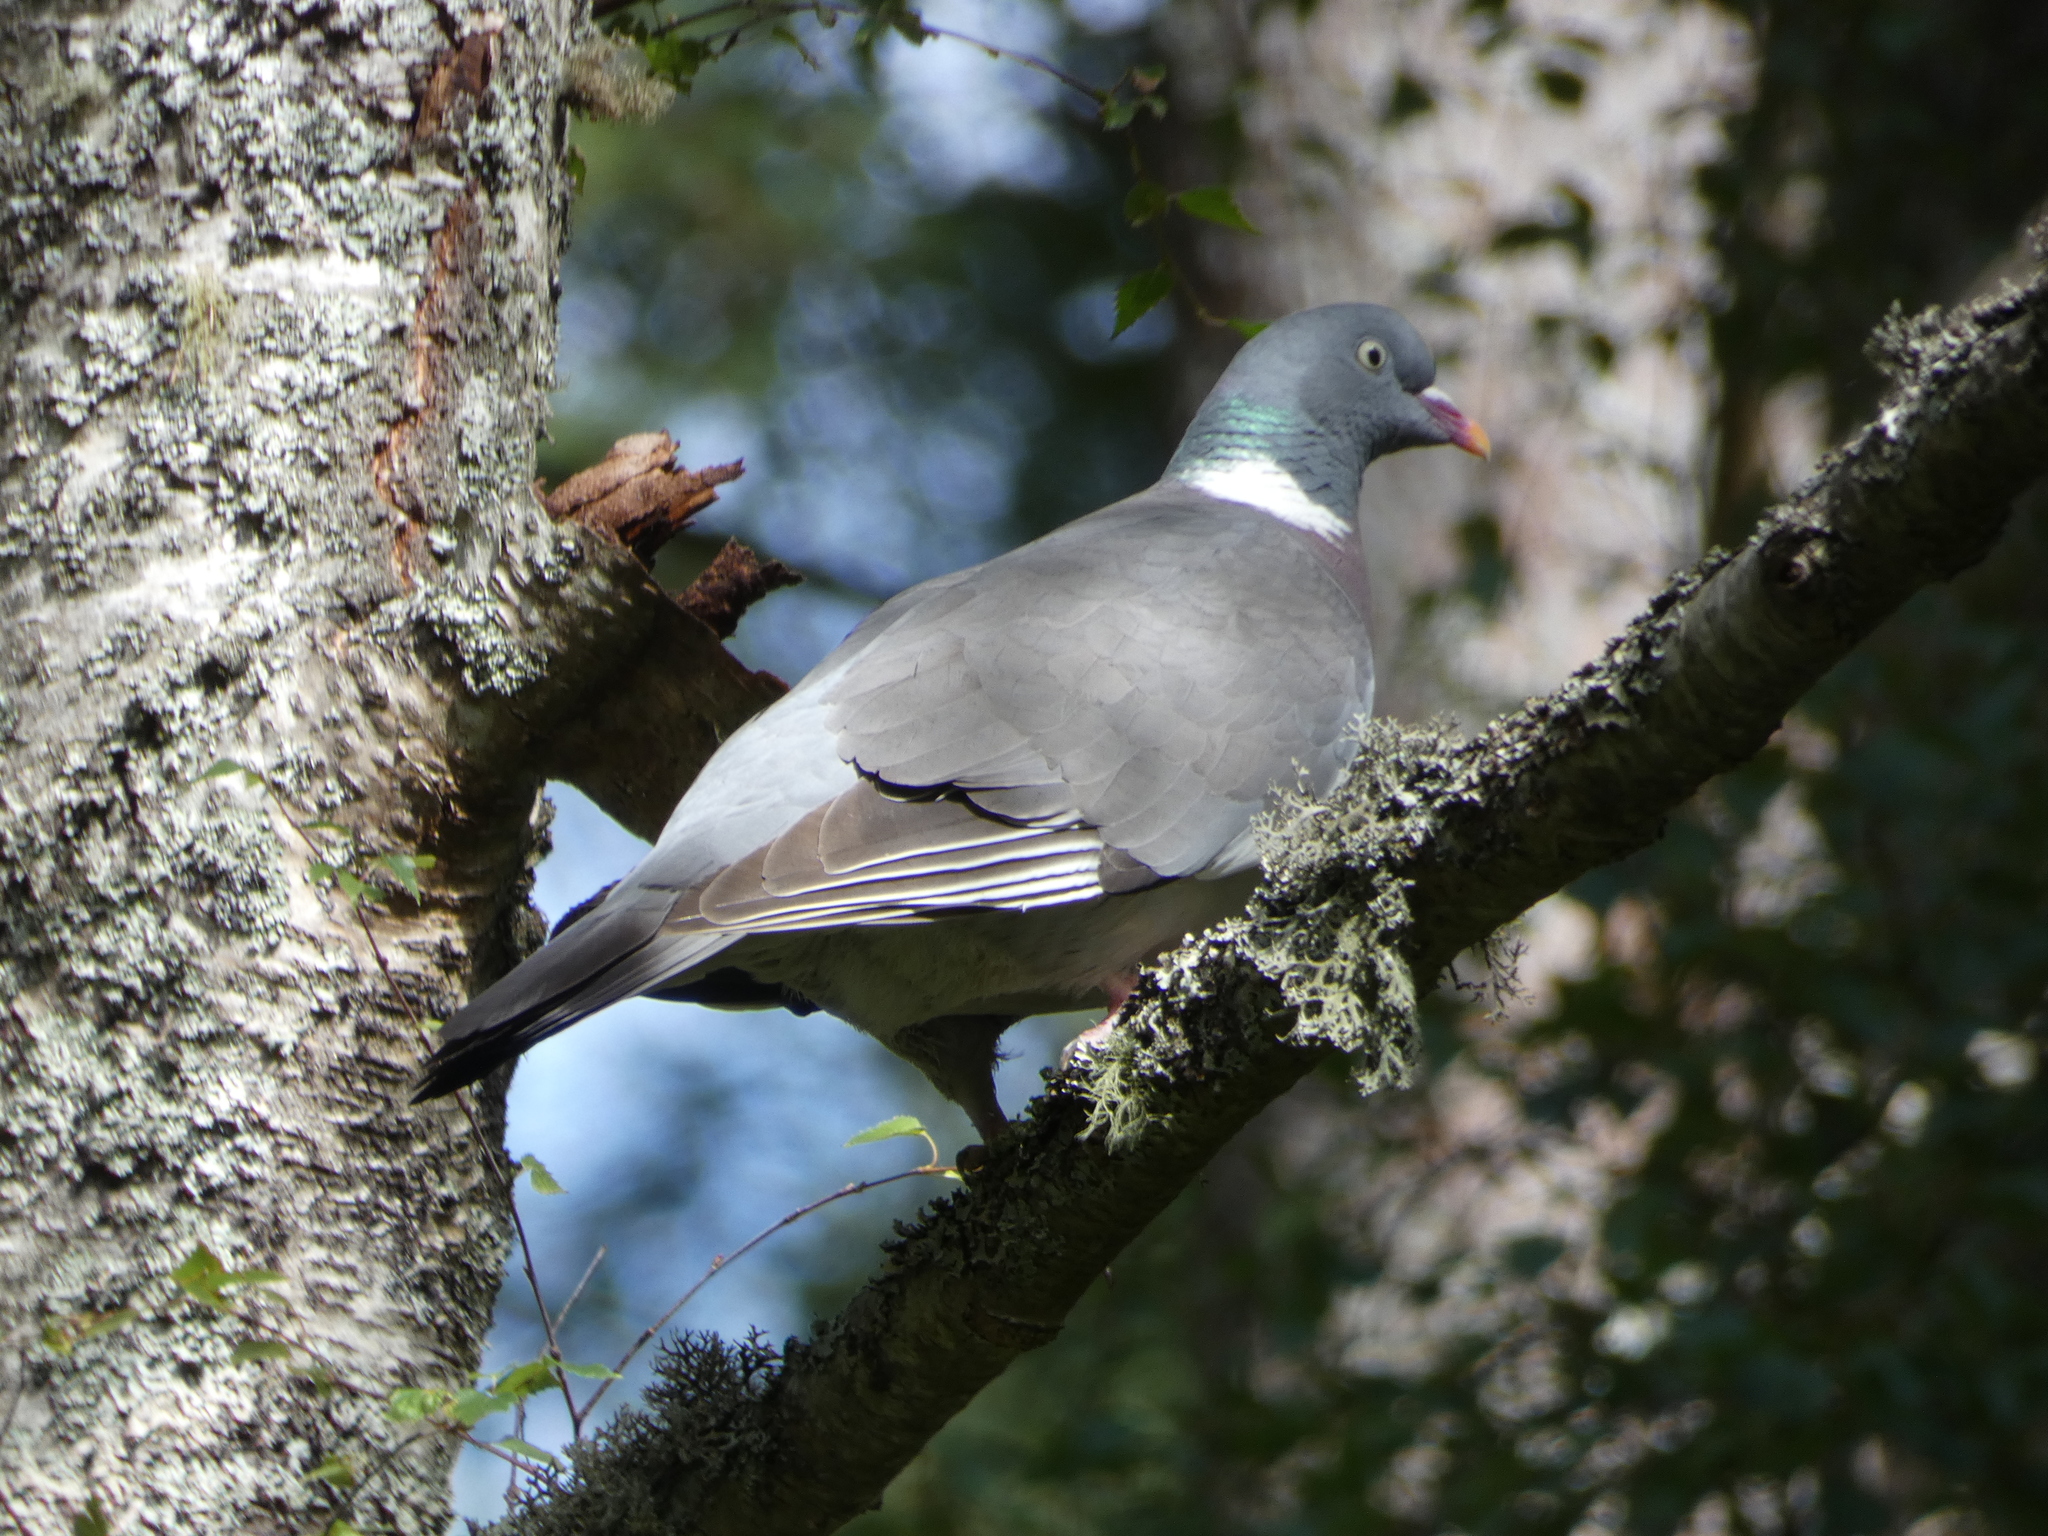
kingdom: Animalia
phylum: Chordata
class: Aves
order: Columbiformes
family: Columbidae
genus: Columba
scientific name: Columba palumbus
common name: Common wood pigeon
